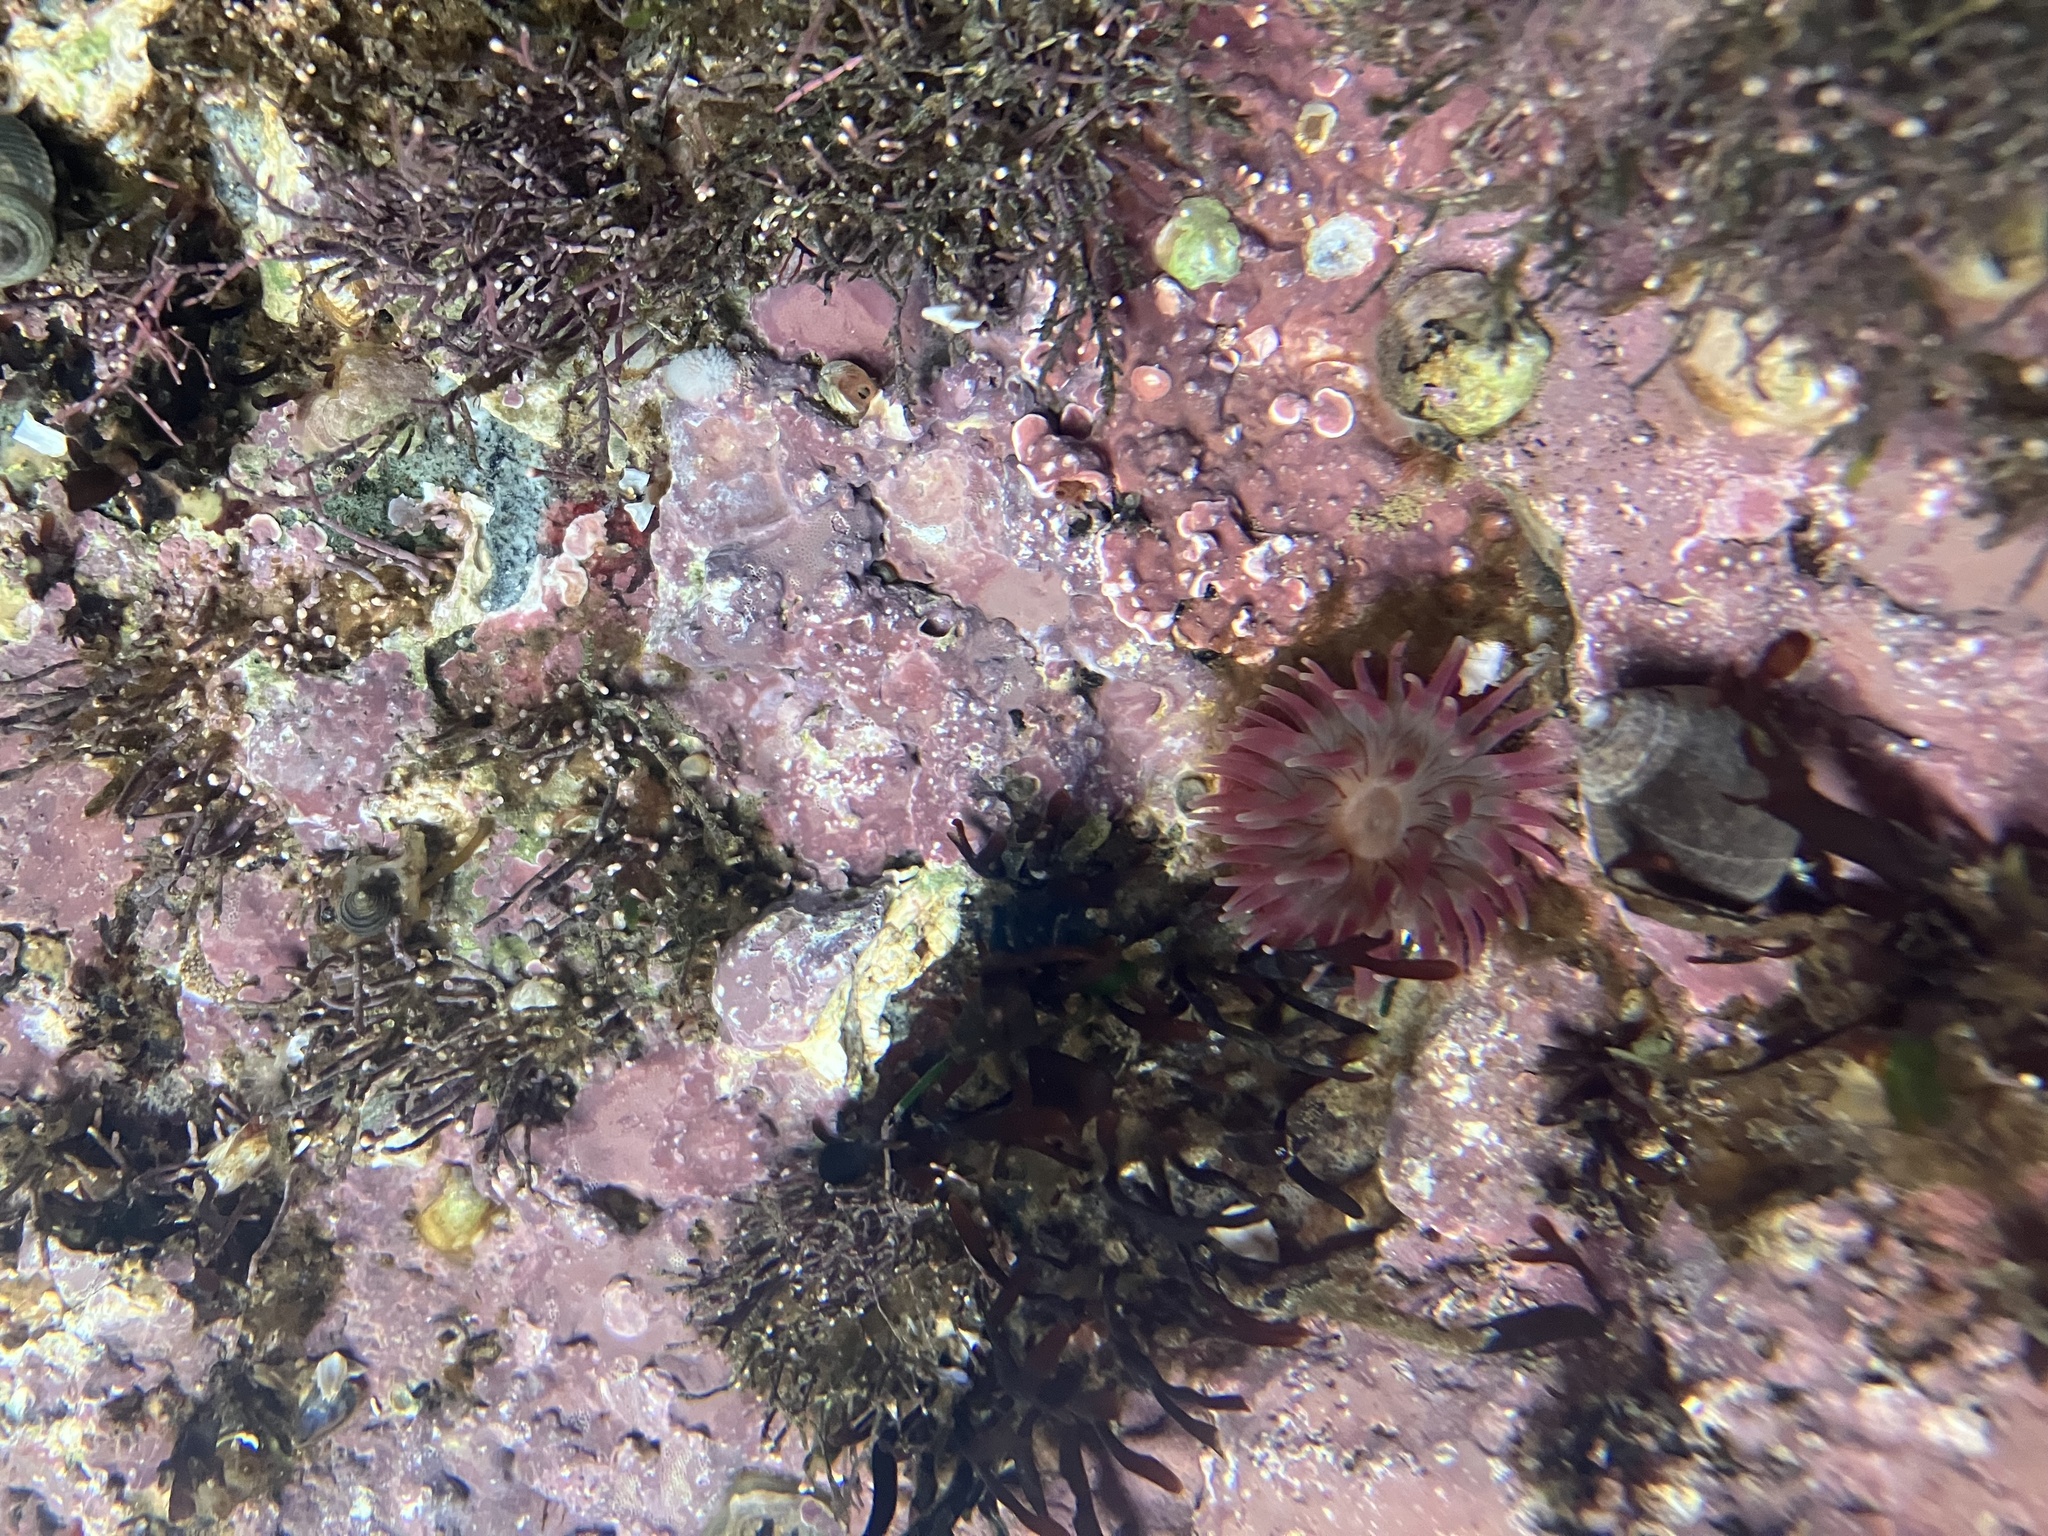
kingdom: Animalia
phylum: Cnidaria
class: Anthozoa
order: Actiniaria
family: Actiniidae
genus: Urticina
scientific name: Urticina crassicornis
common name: Mottled anemone
